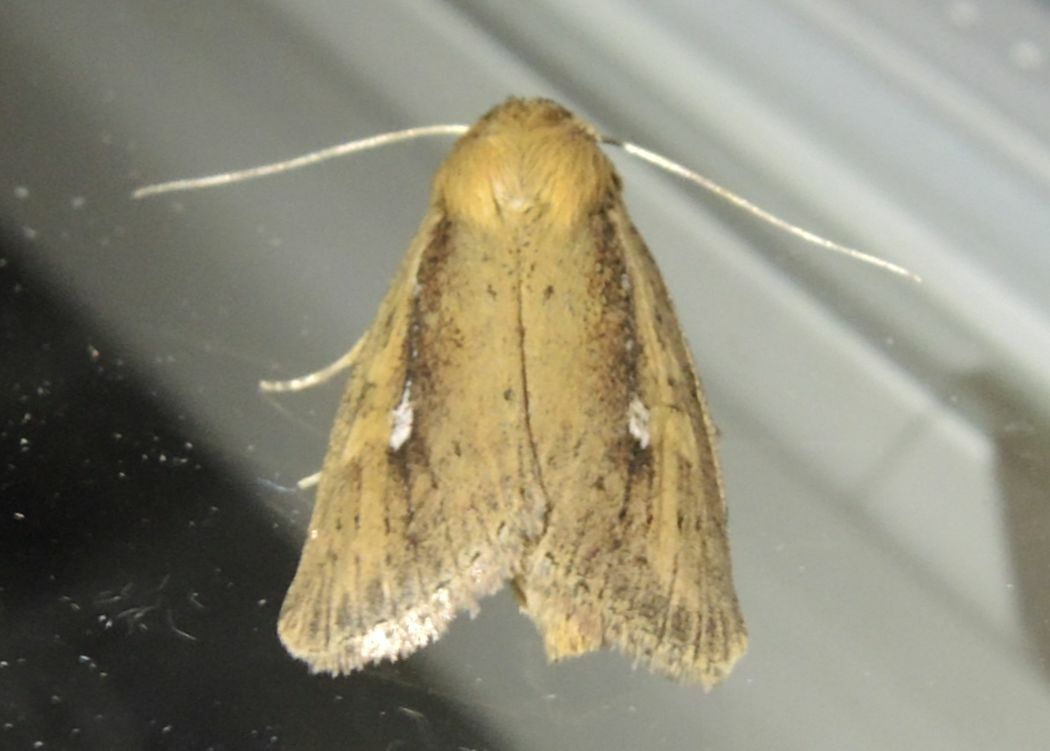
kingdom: Animalia
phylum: Arthropoda
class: Insecta
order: Lepidoptera
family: Noctuidae
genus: Archanara
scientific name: Archanara dissoluta
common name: Brown-veined wainscot
